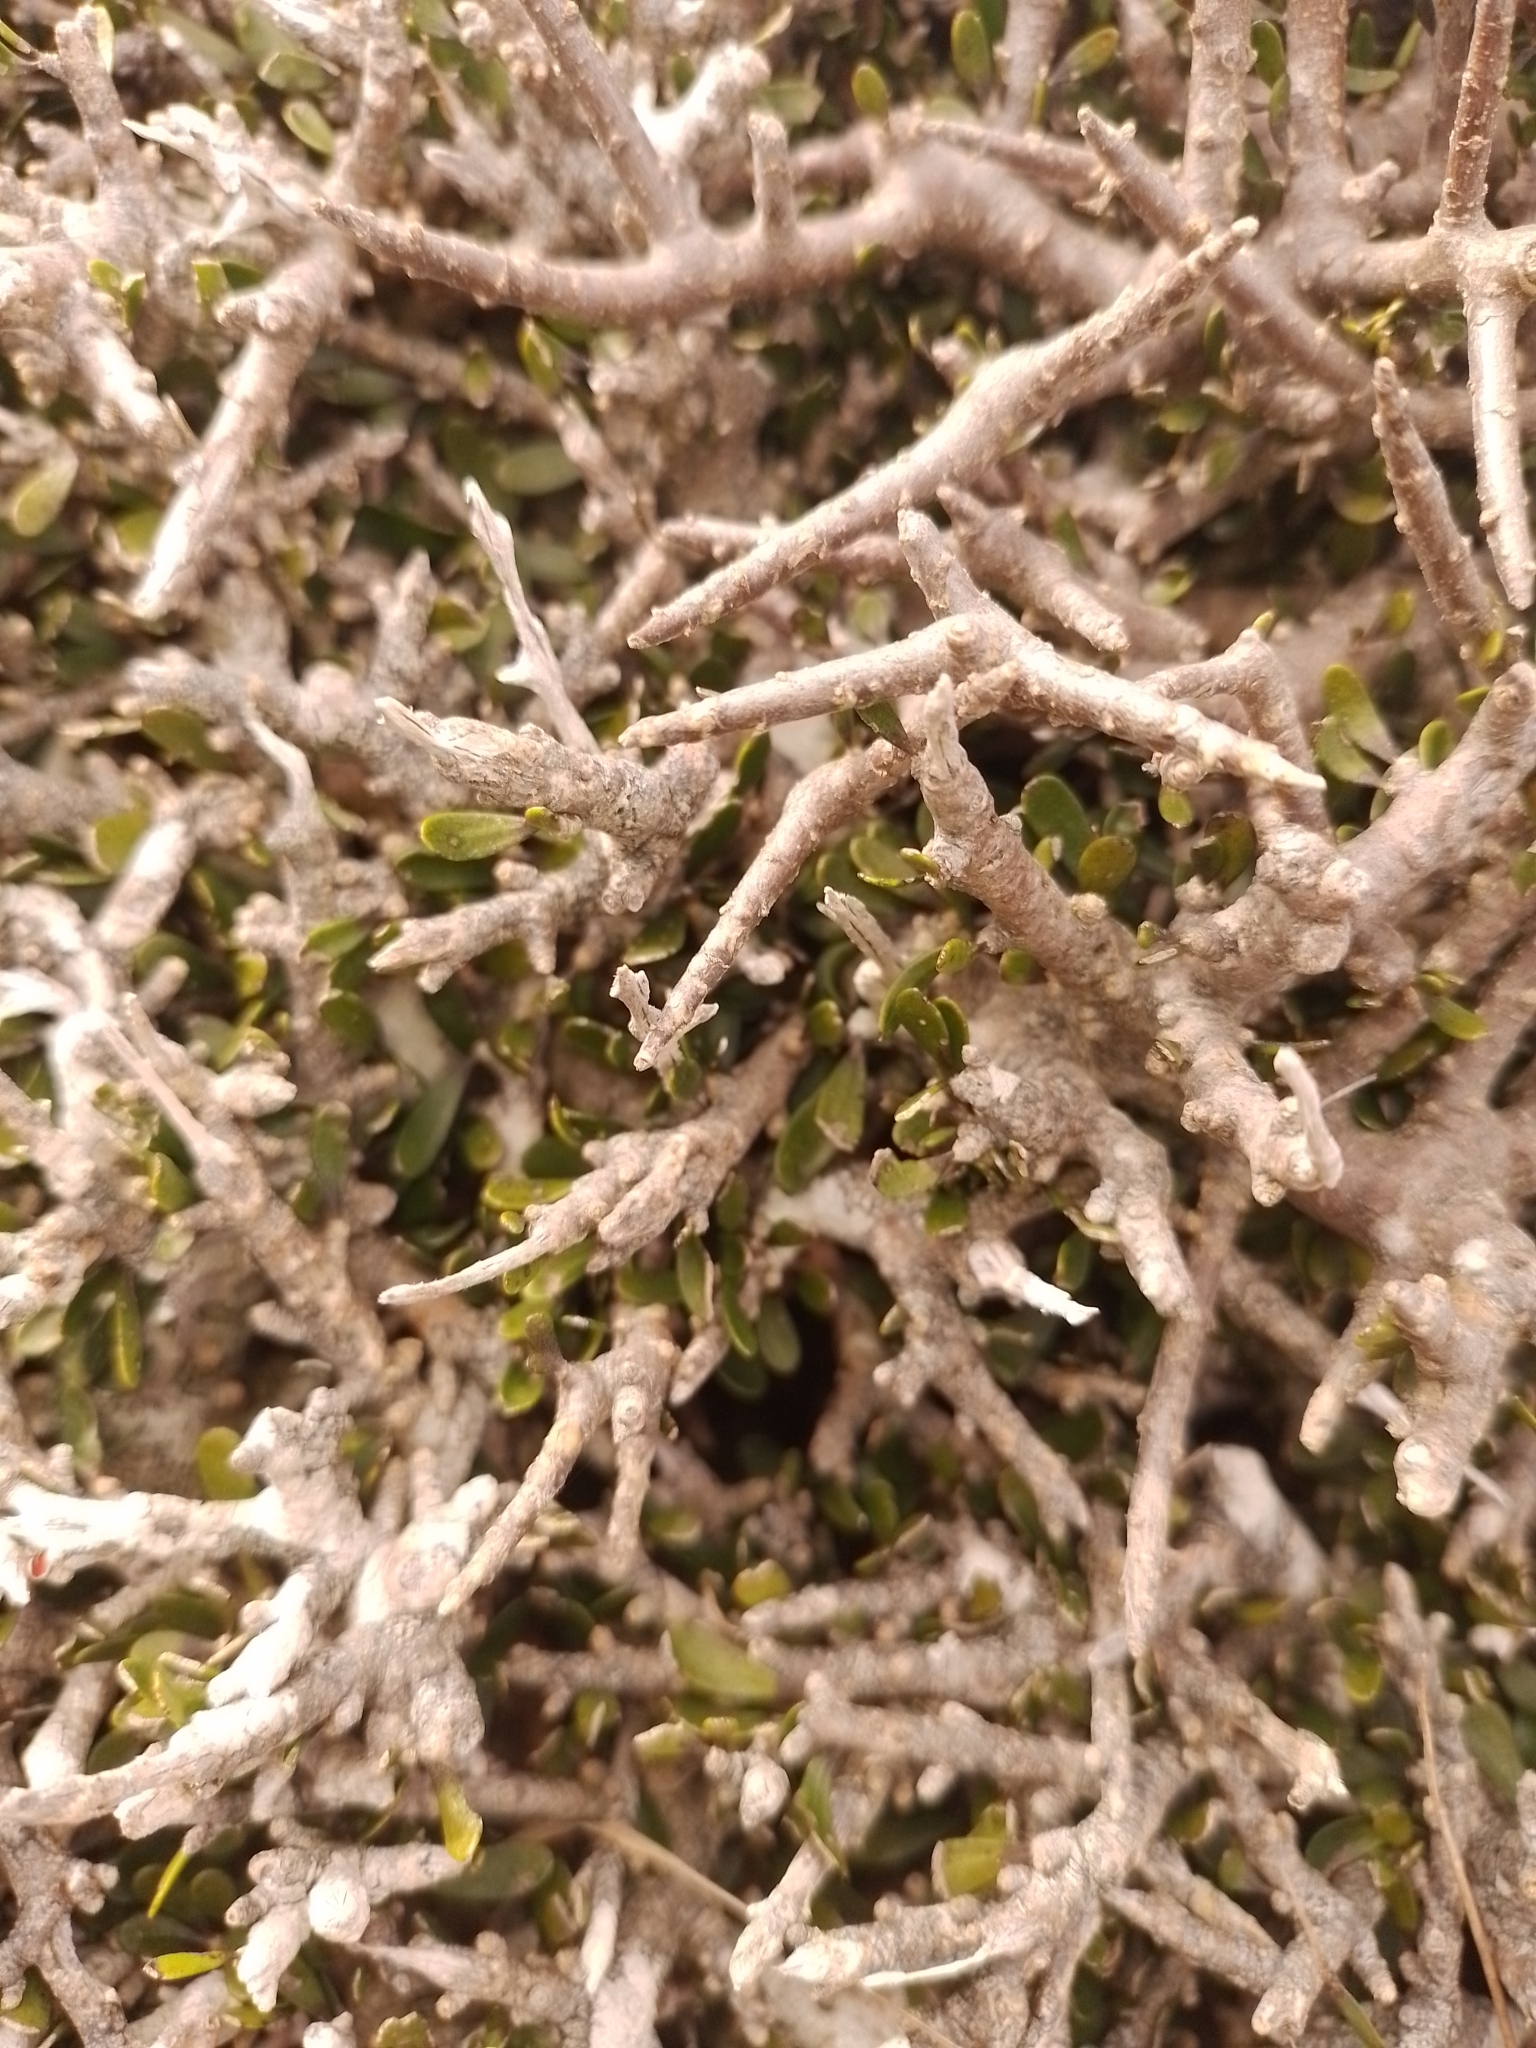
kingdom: Plantae
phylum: Tracheophyta
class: Magnoliopsida
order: Malpighiales
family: Violaceae
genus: Melicytus
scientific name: Melicytus alpinus
